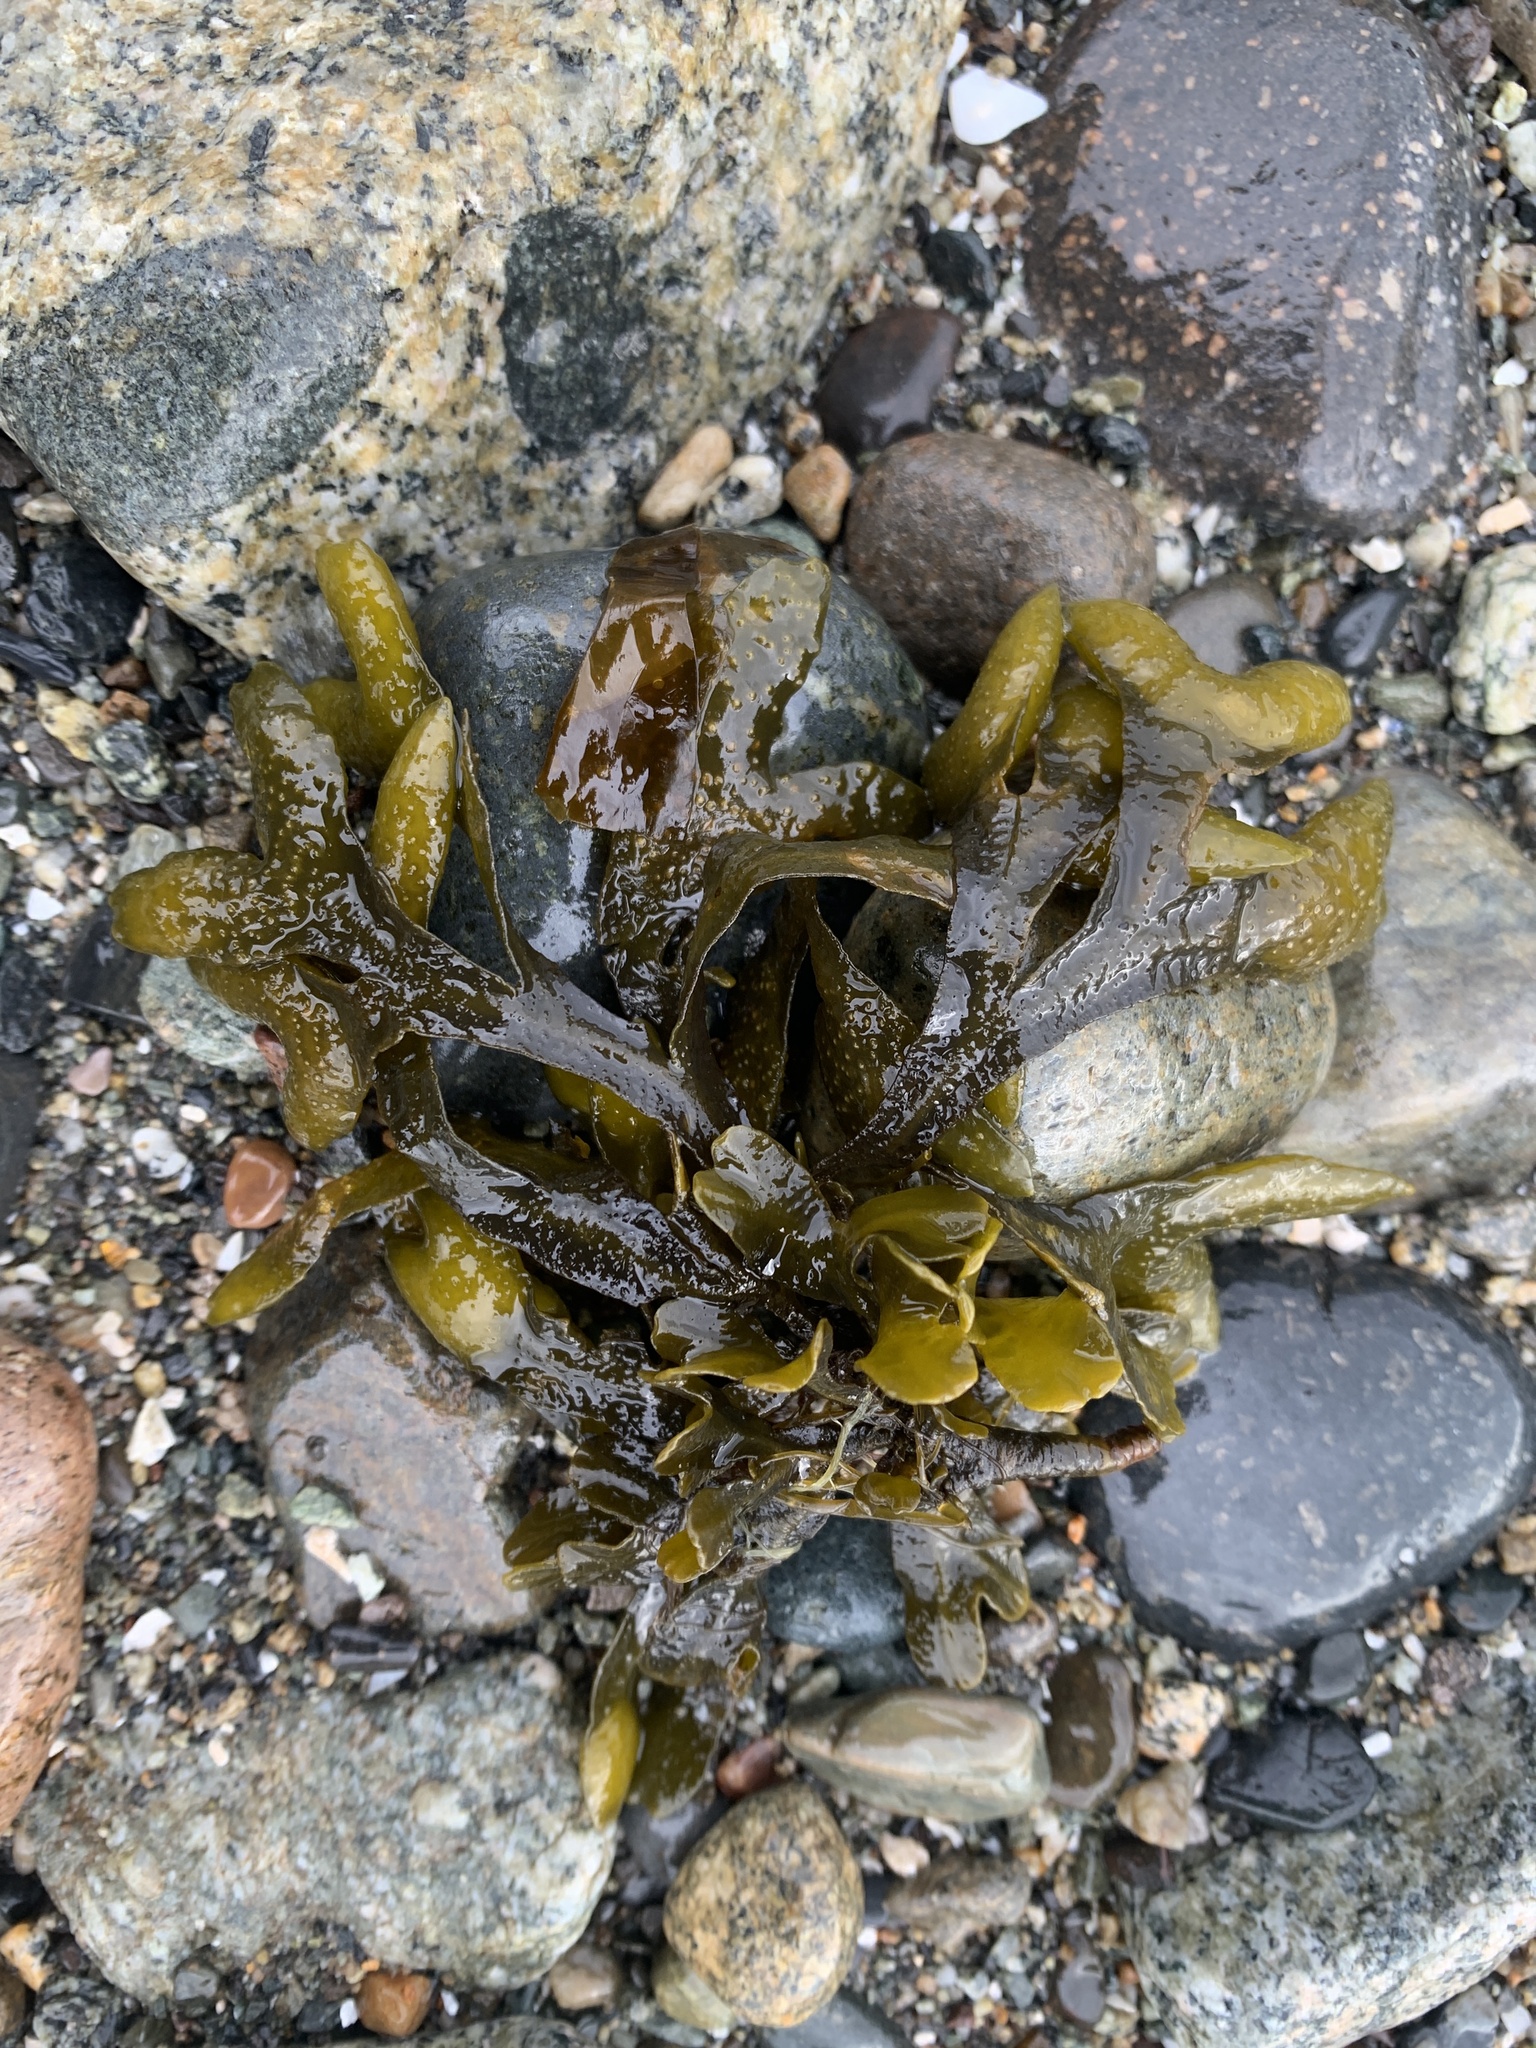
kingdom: Chromista
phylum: Ochrophyta
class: Phaeophyceae
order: Fucales
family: Fucaceae
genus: Fucus
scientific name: Fucus distichus
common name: Rockweed
